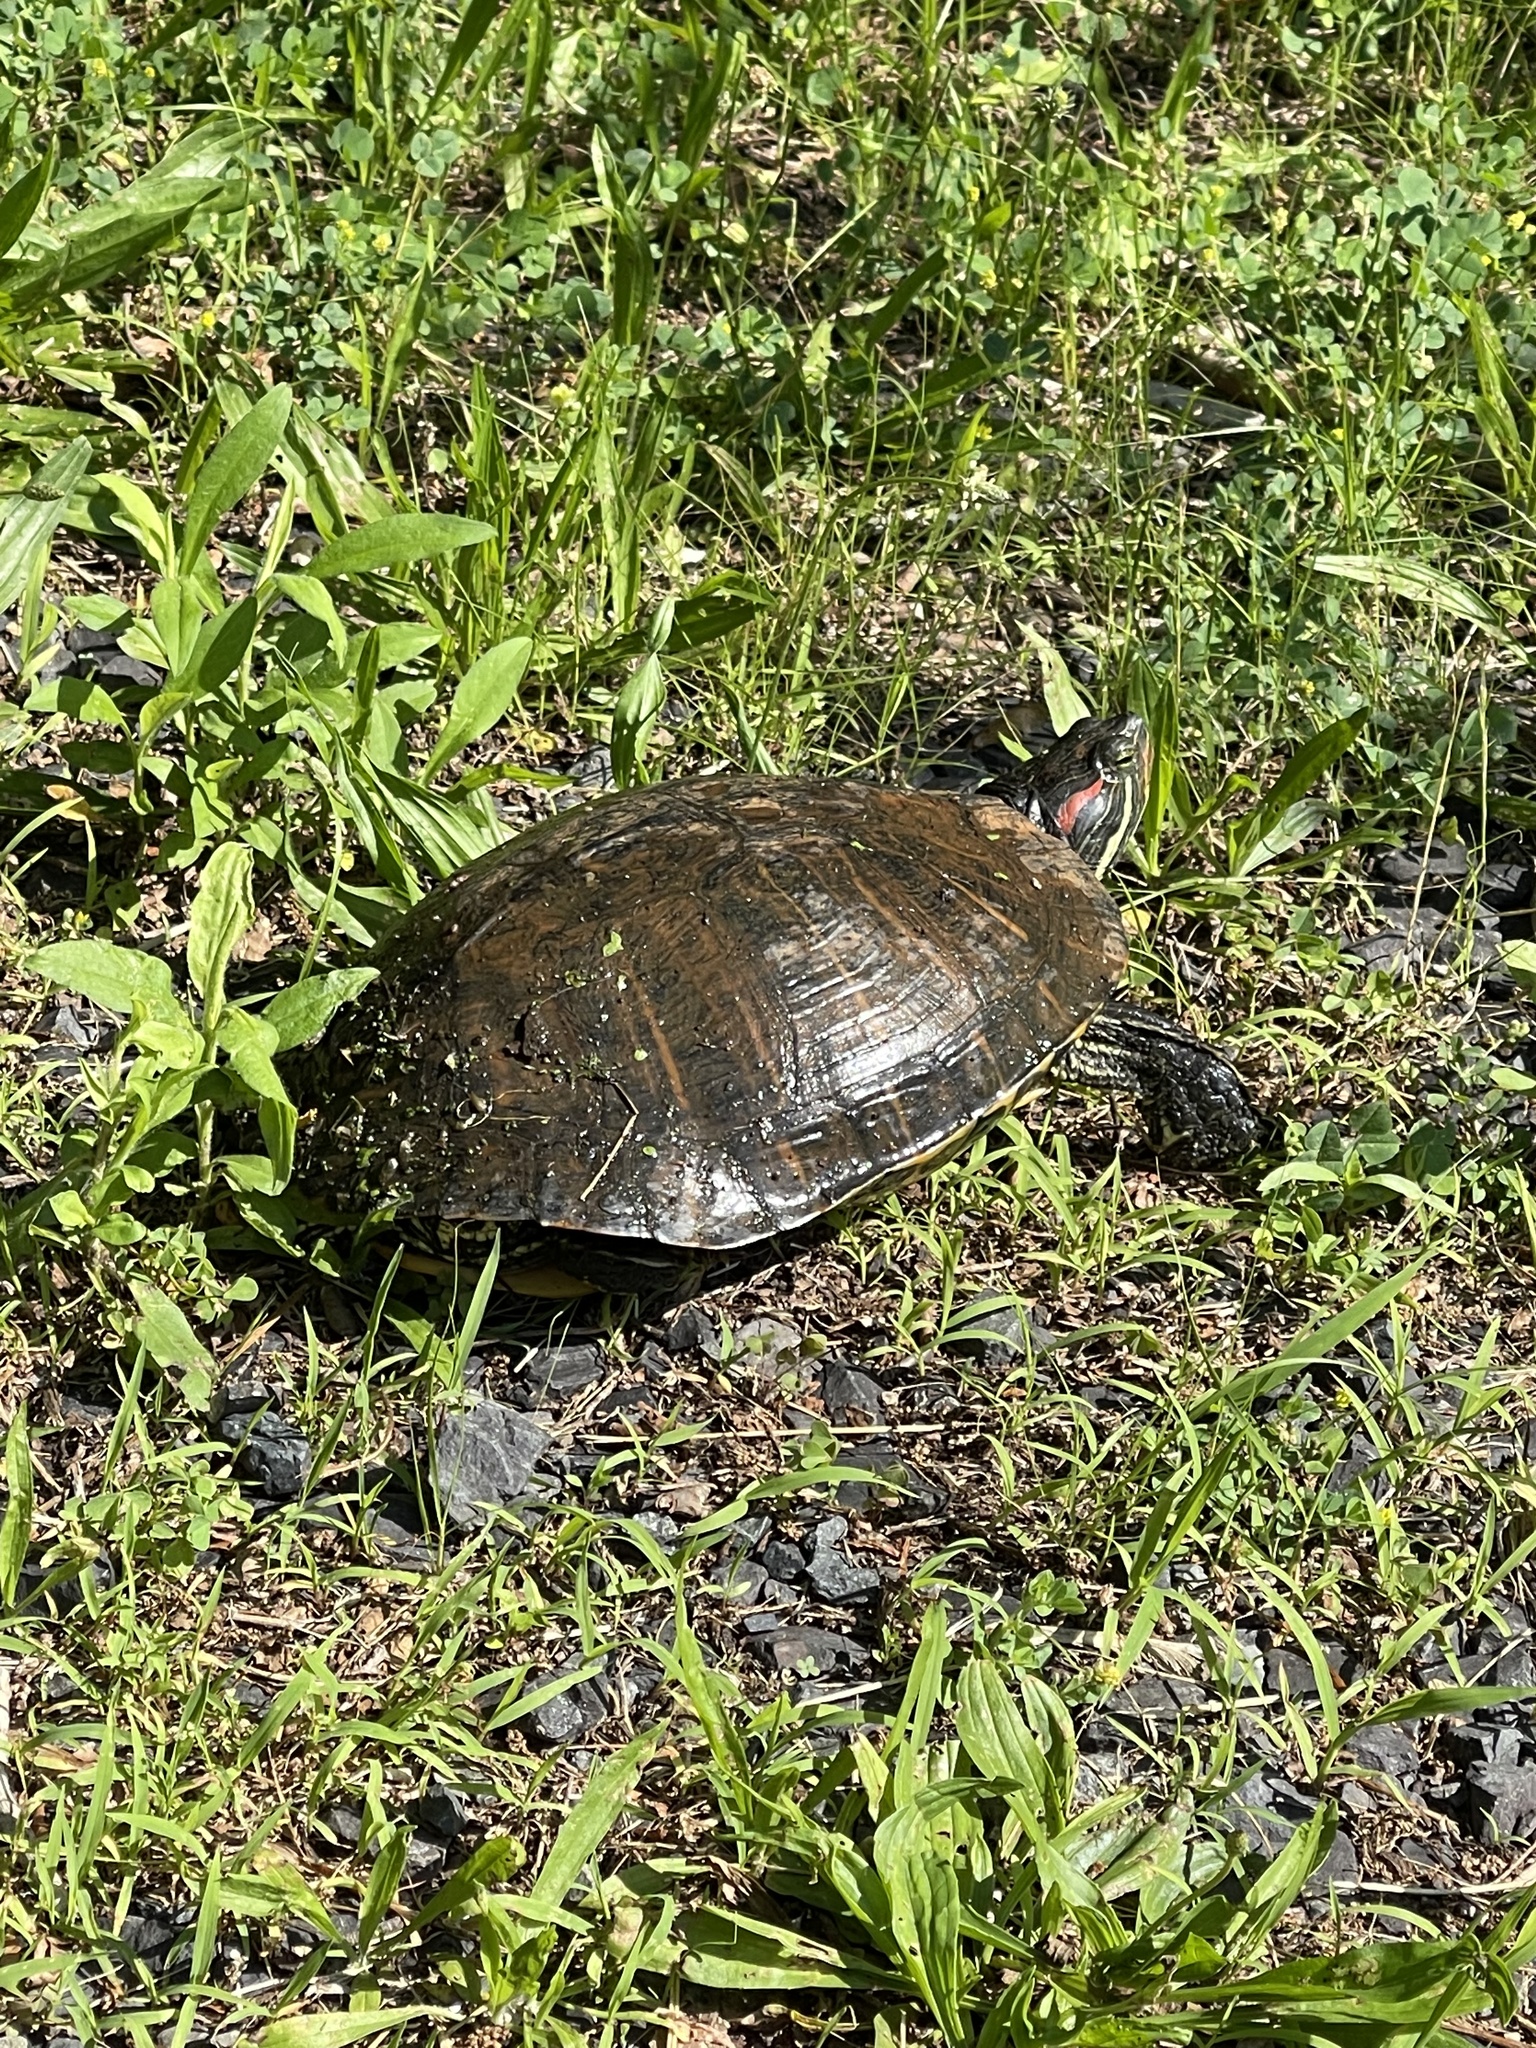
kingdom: Animalia
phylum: Chordata
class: Testudines
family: Emydidae
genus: Trachemys
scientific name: Trachemys scripta
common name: Slider
